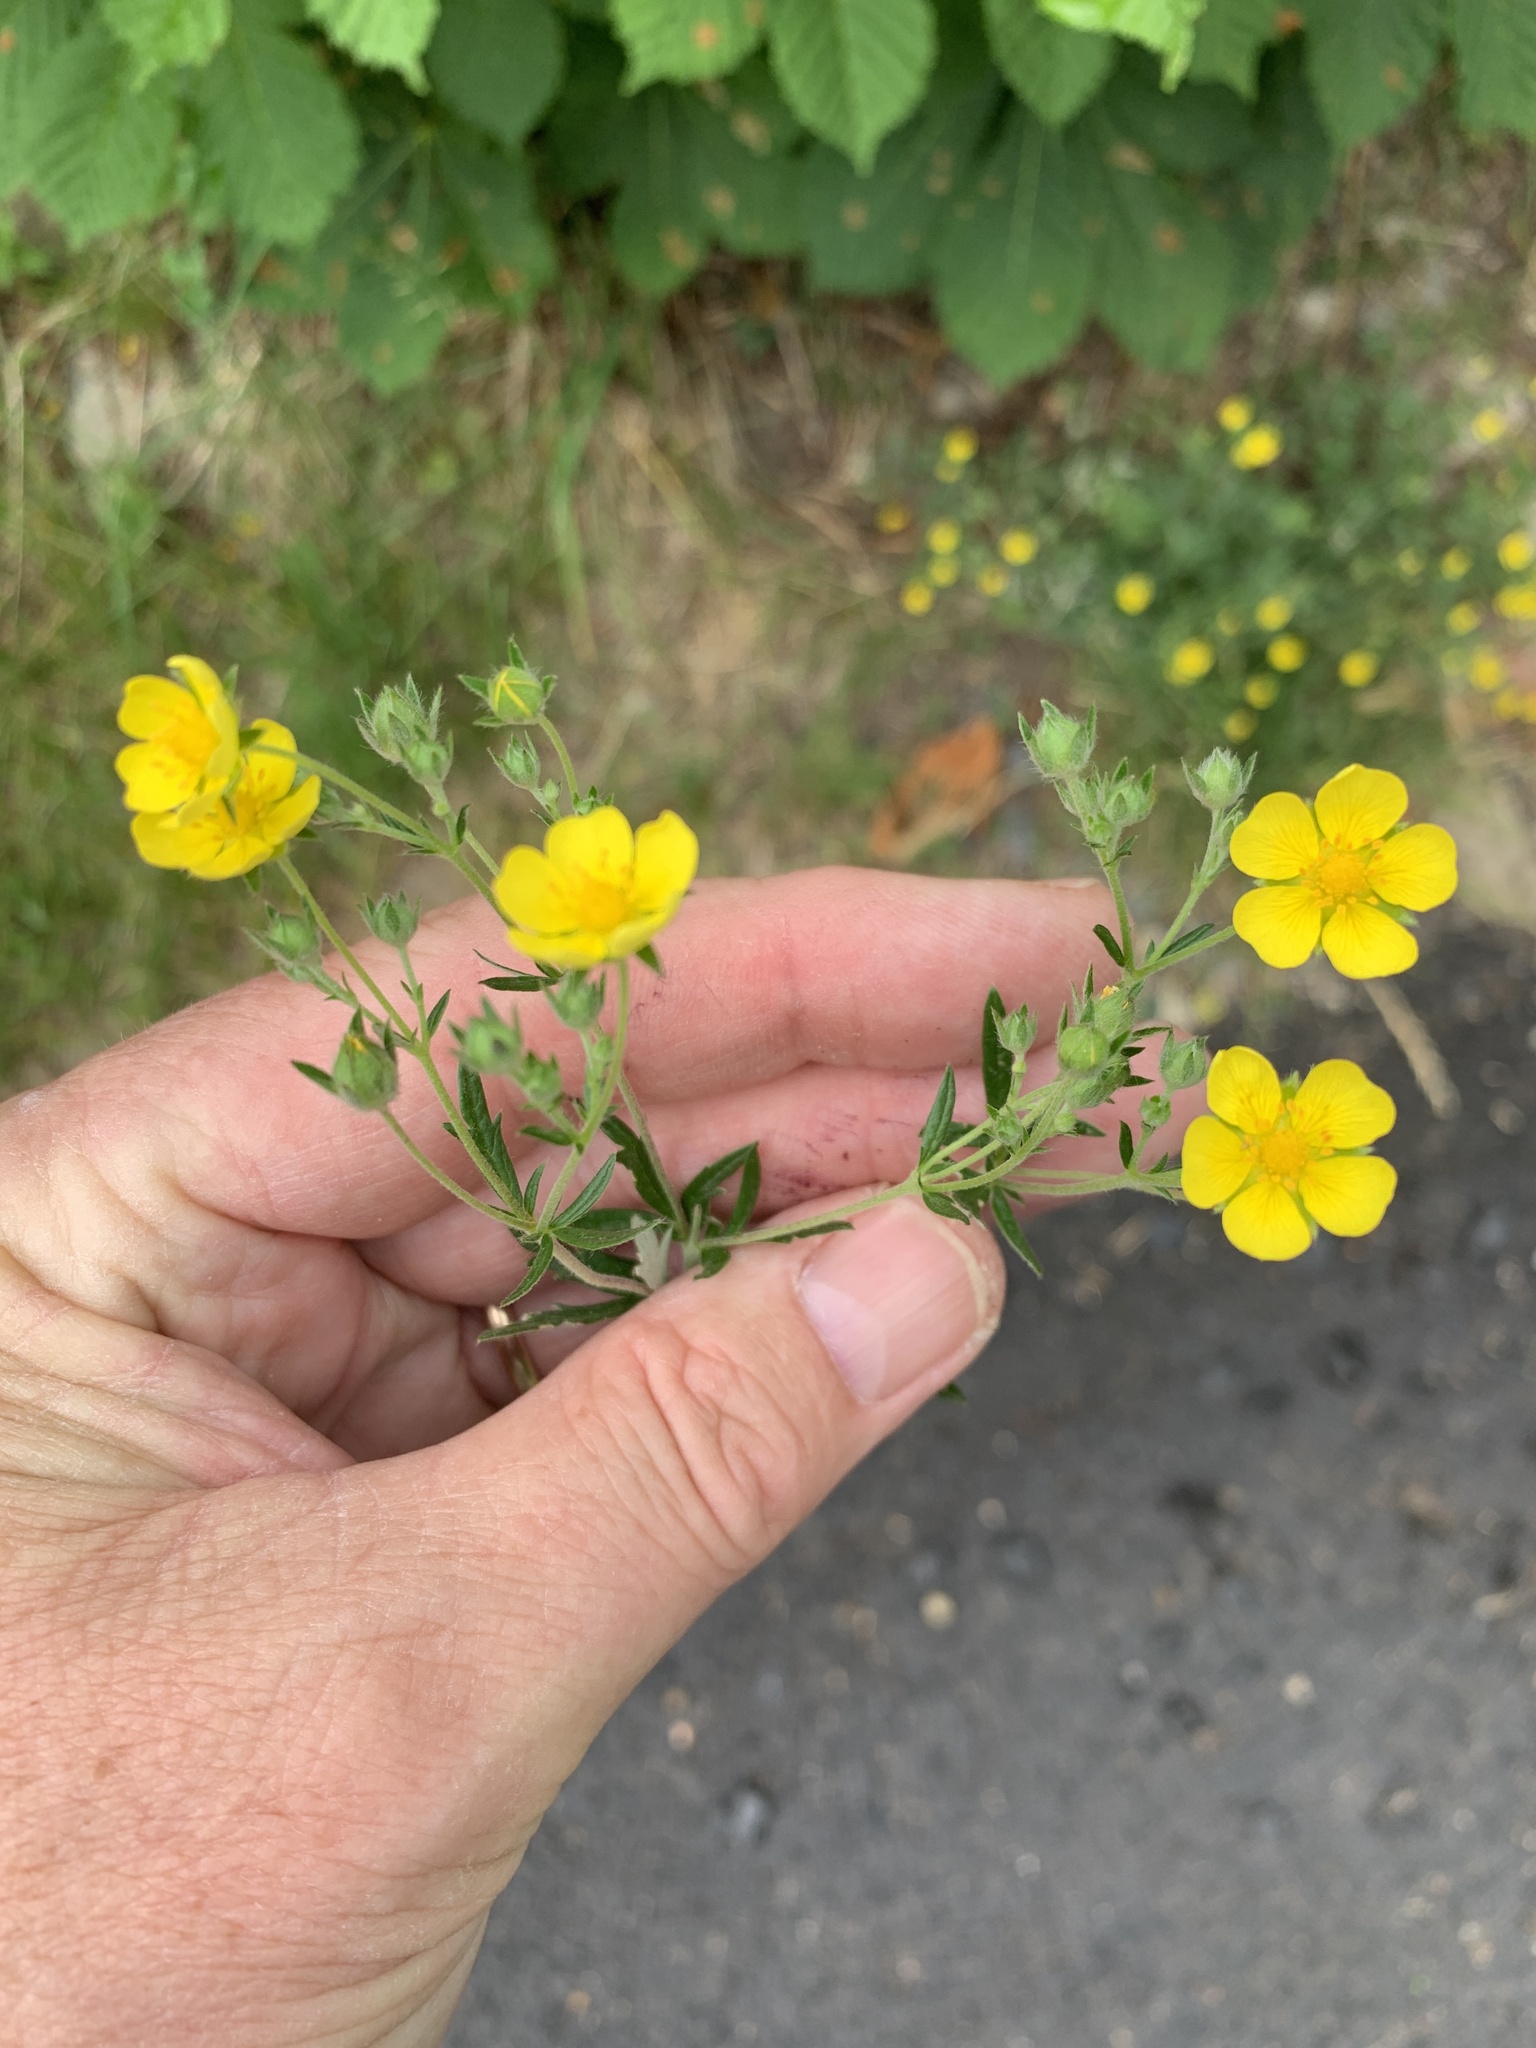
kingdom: Plantae
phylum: Tracheophyta
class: Magnoliopsida
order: Rosales
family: Rosaceae
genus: Potentilla
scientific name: Potentilla argentea
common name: Hoary cinquefoil
